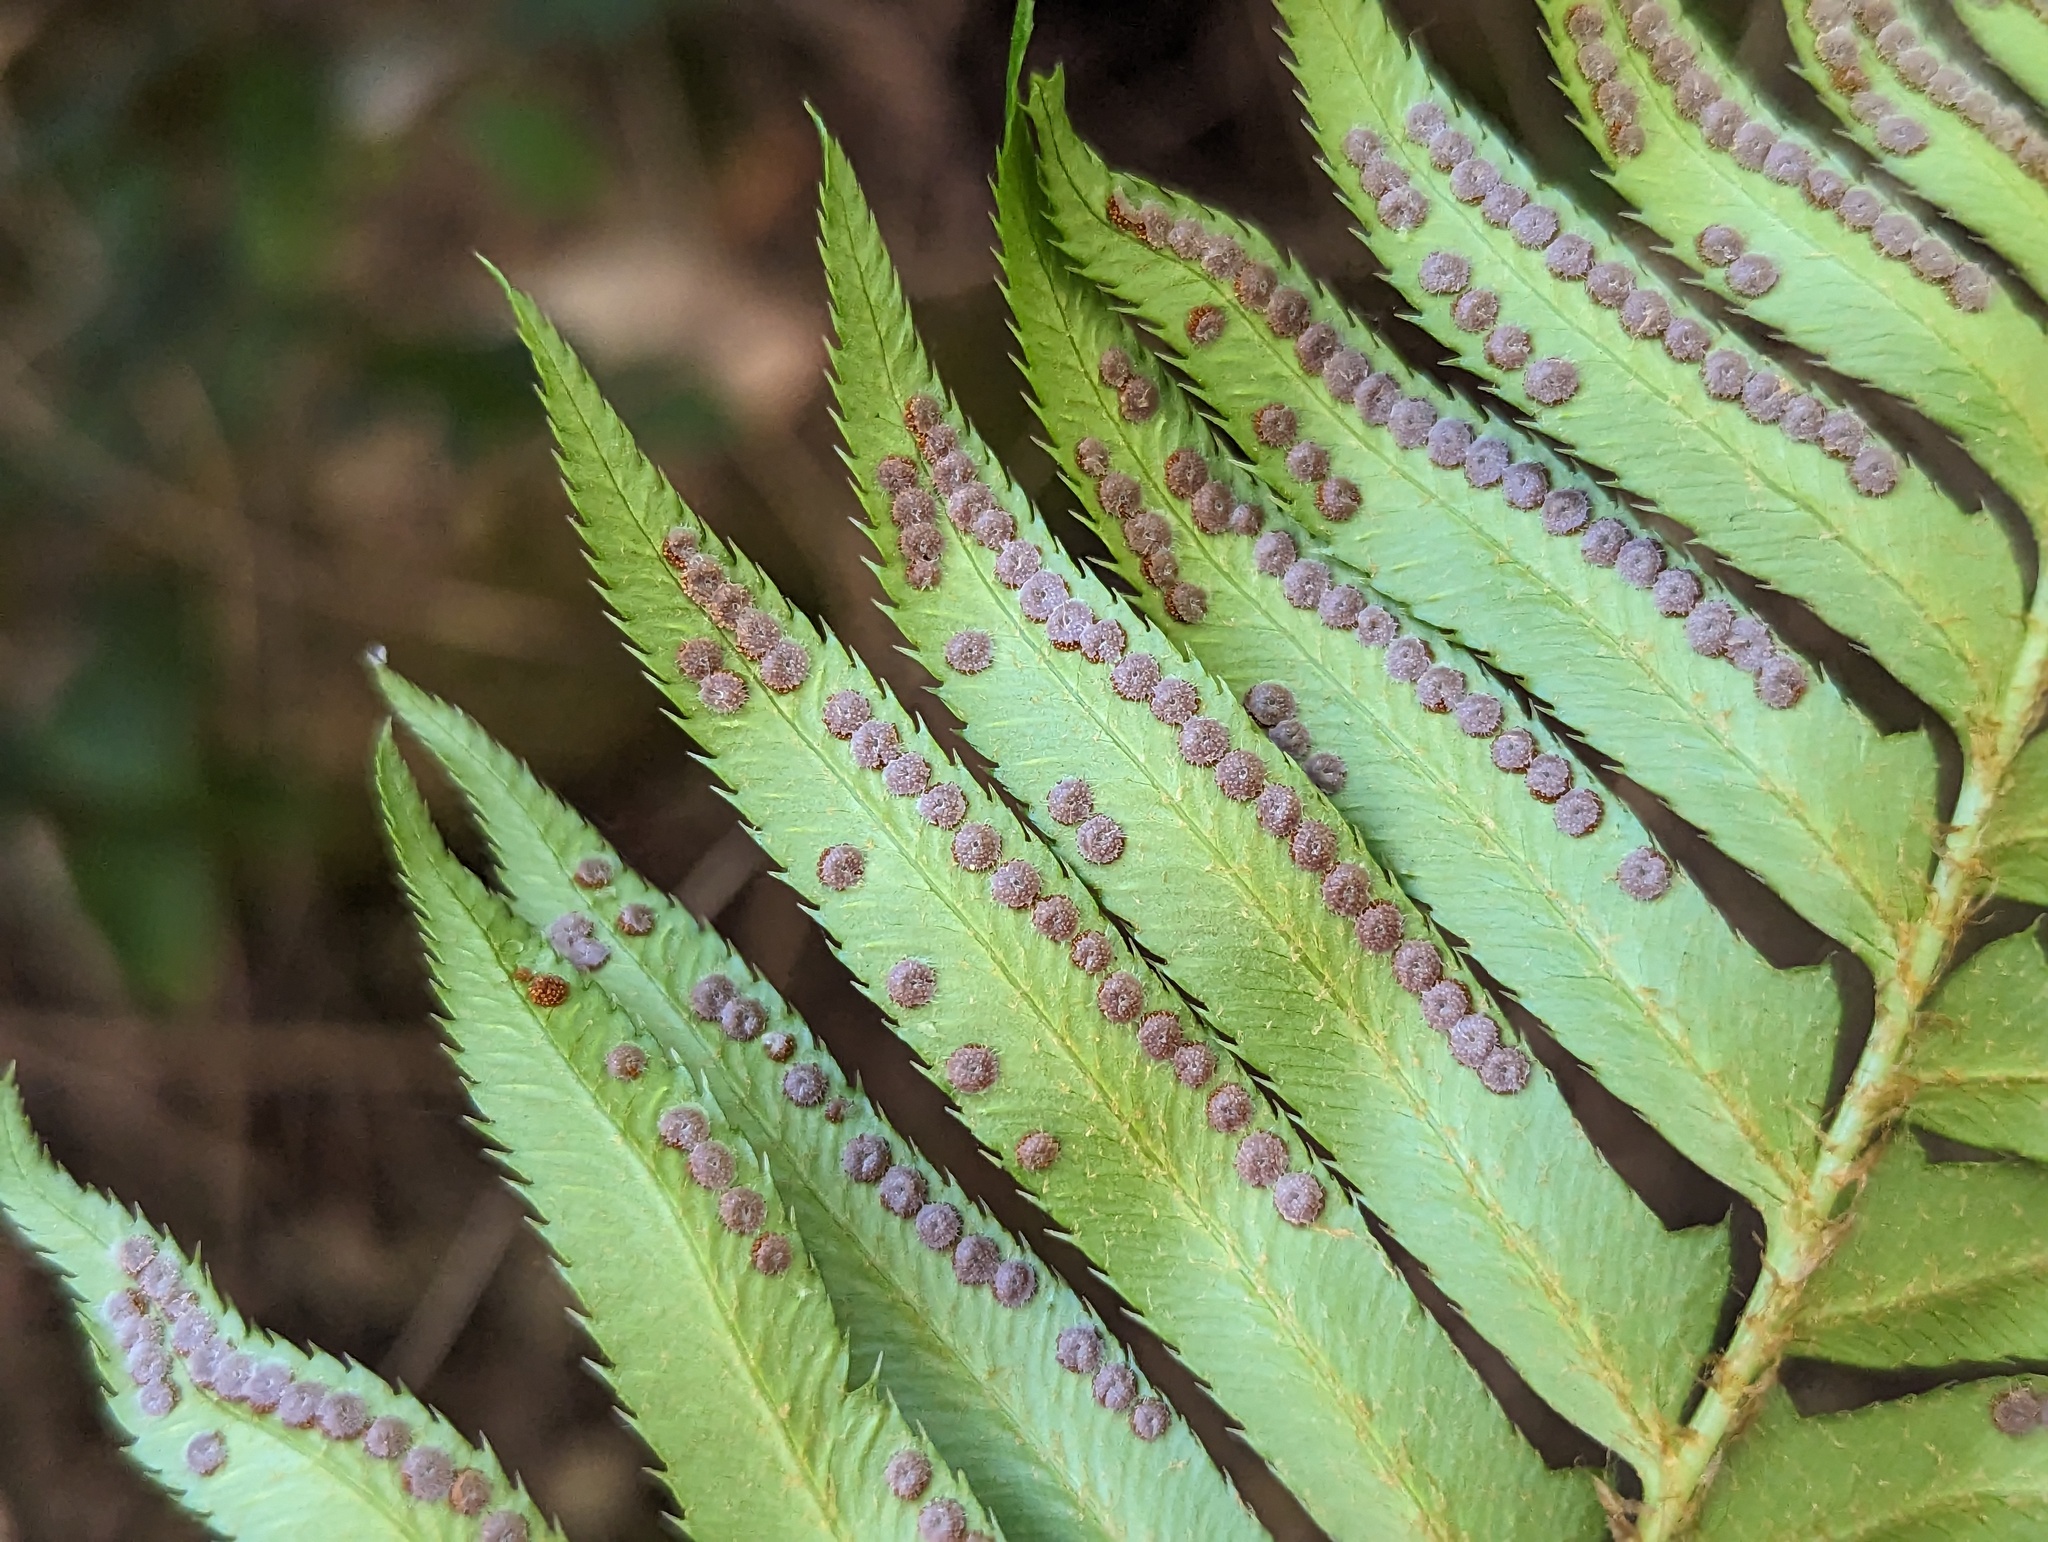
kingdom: Plantae
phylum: Tracheophyta
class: Polypodiopsida
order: Polypodiales
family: Dryopteridaceae
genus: Polystichum
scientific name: Polystichum munitum
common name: Western sword-fern
